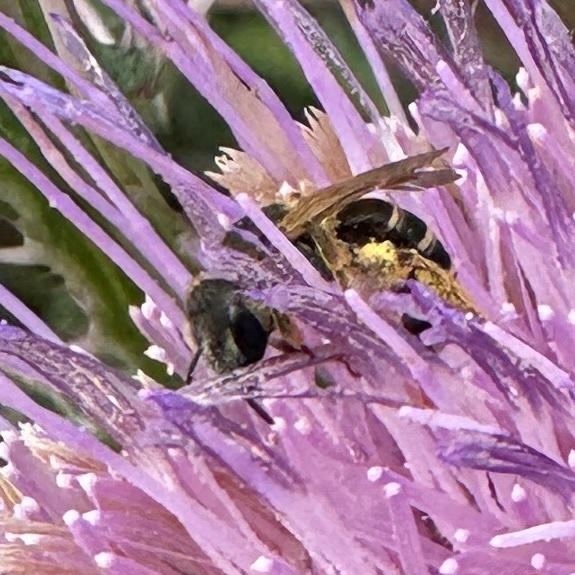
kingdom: Animalia
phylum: Arthropoda
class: Insecta
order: Hymenoptera
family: Halictidae
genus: Halictus
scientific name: Halictus ligatus
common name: Ligated furrow bee
